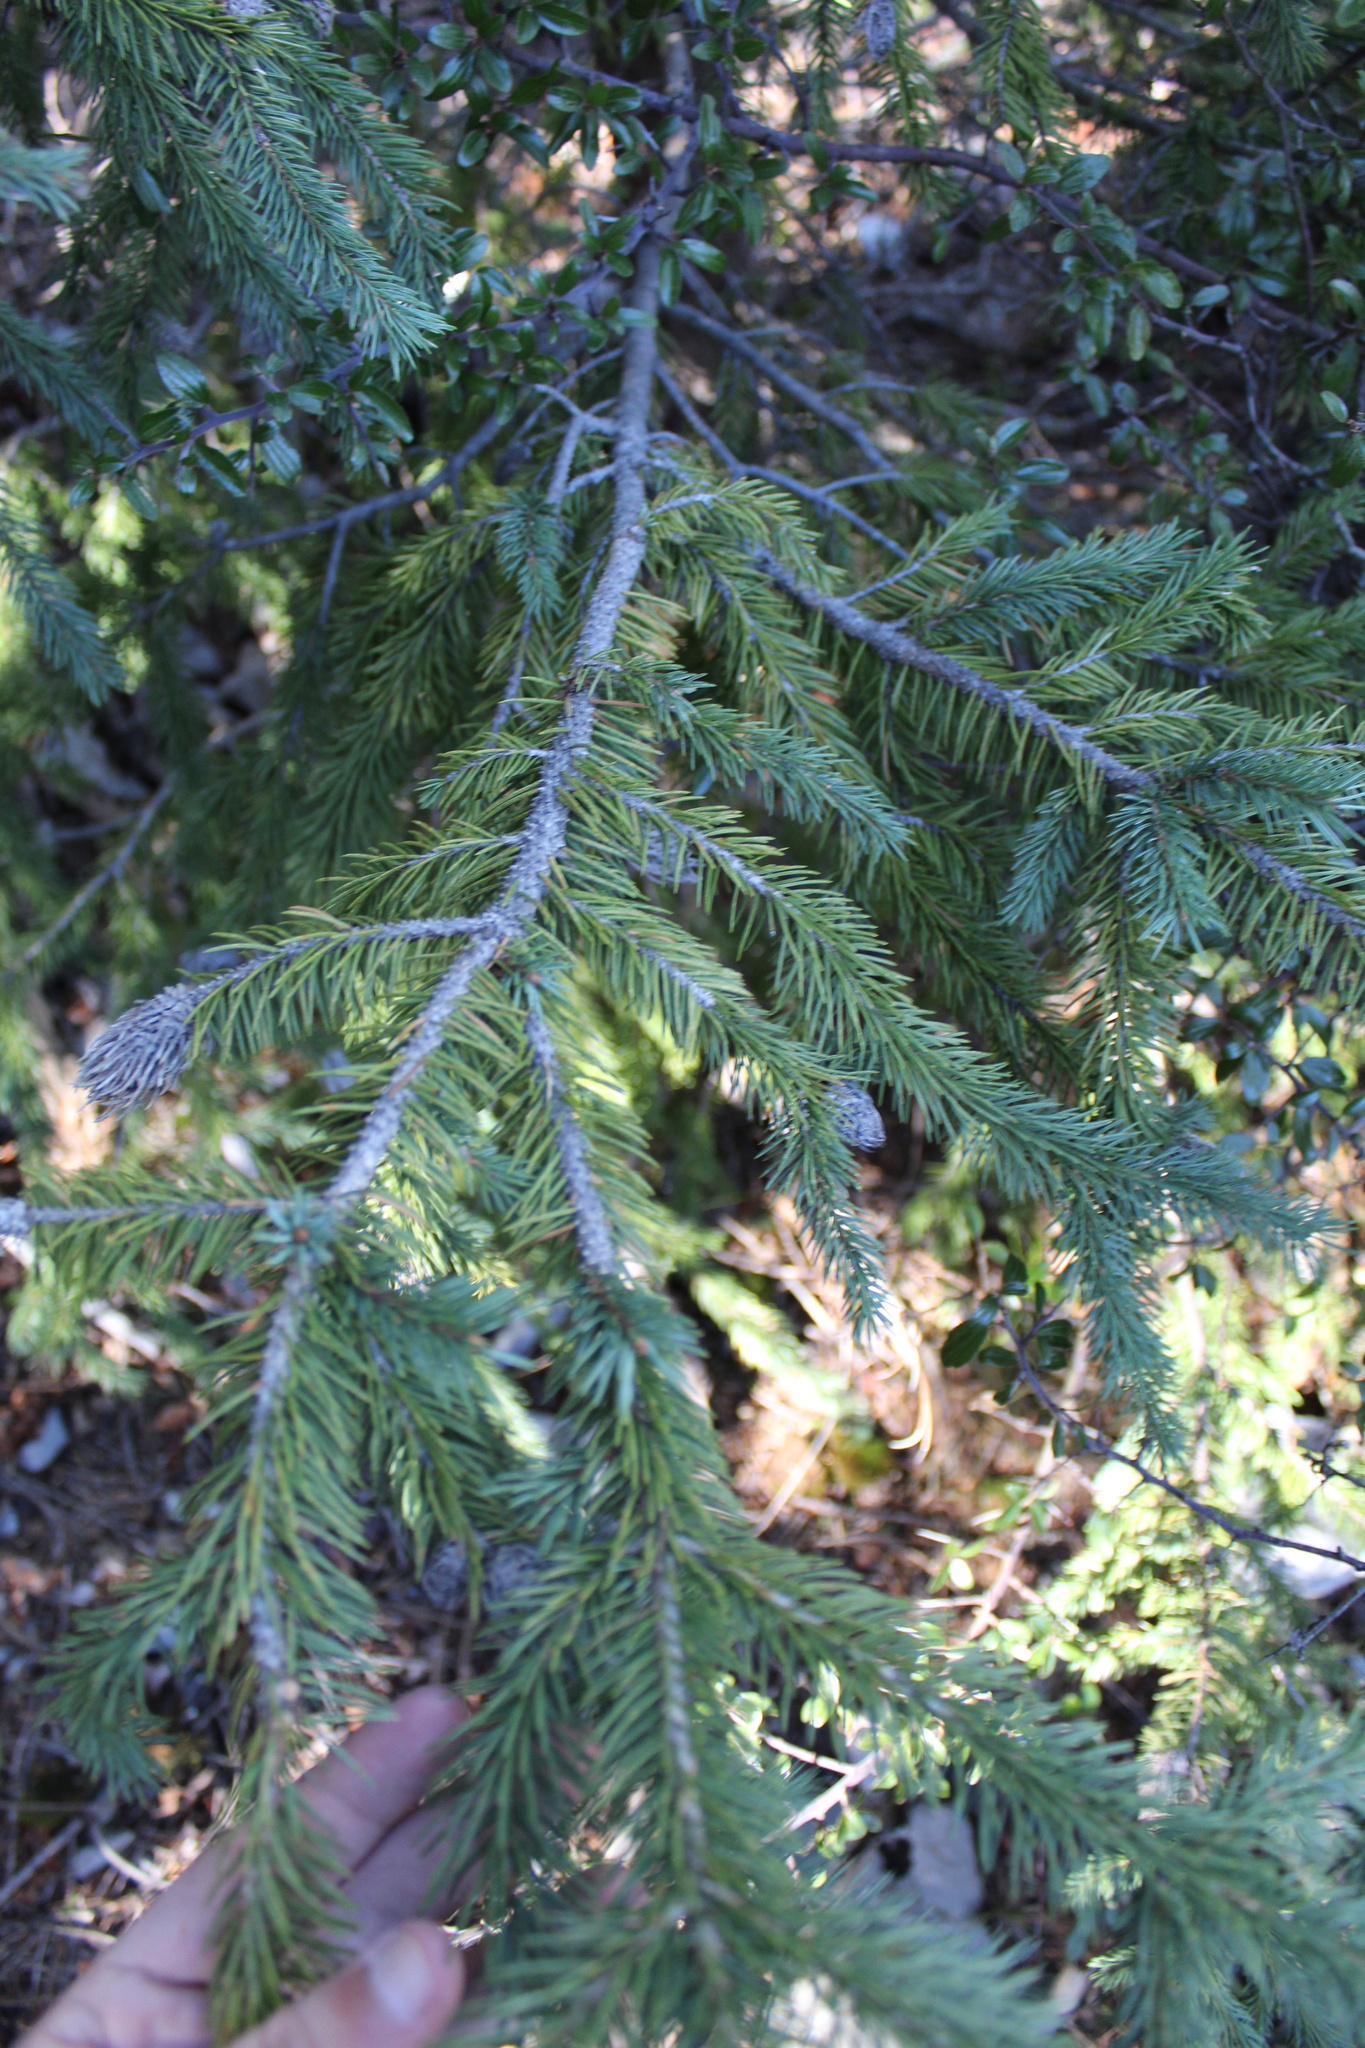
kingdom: Plantae
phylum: Tracheophyta
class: Pinopsida
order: Pinales
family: Pinaceae
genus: Picea
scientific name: Picea engelmannii
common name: Engelmann spruce
